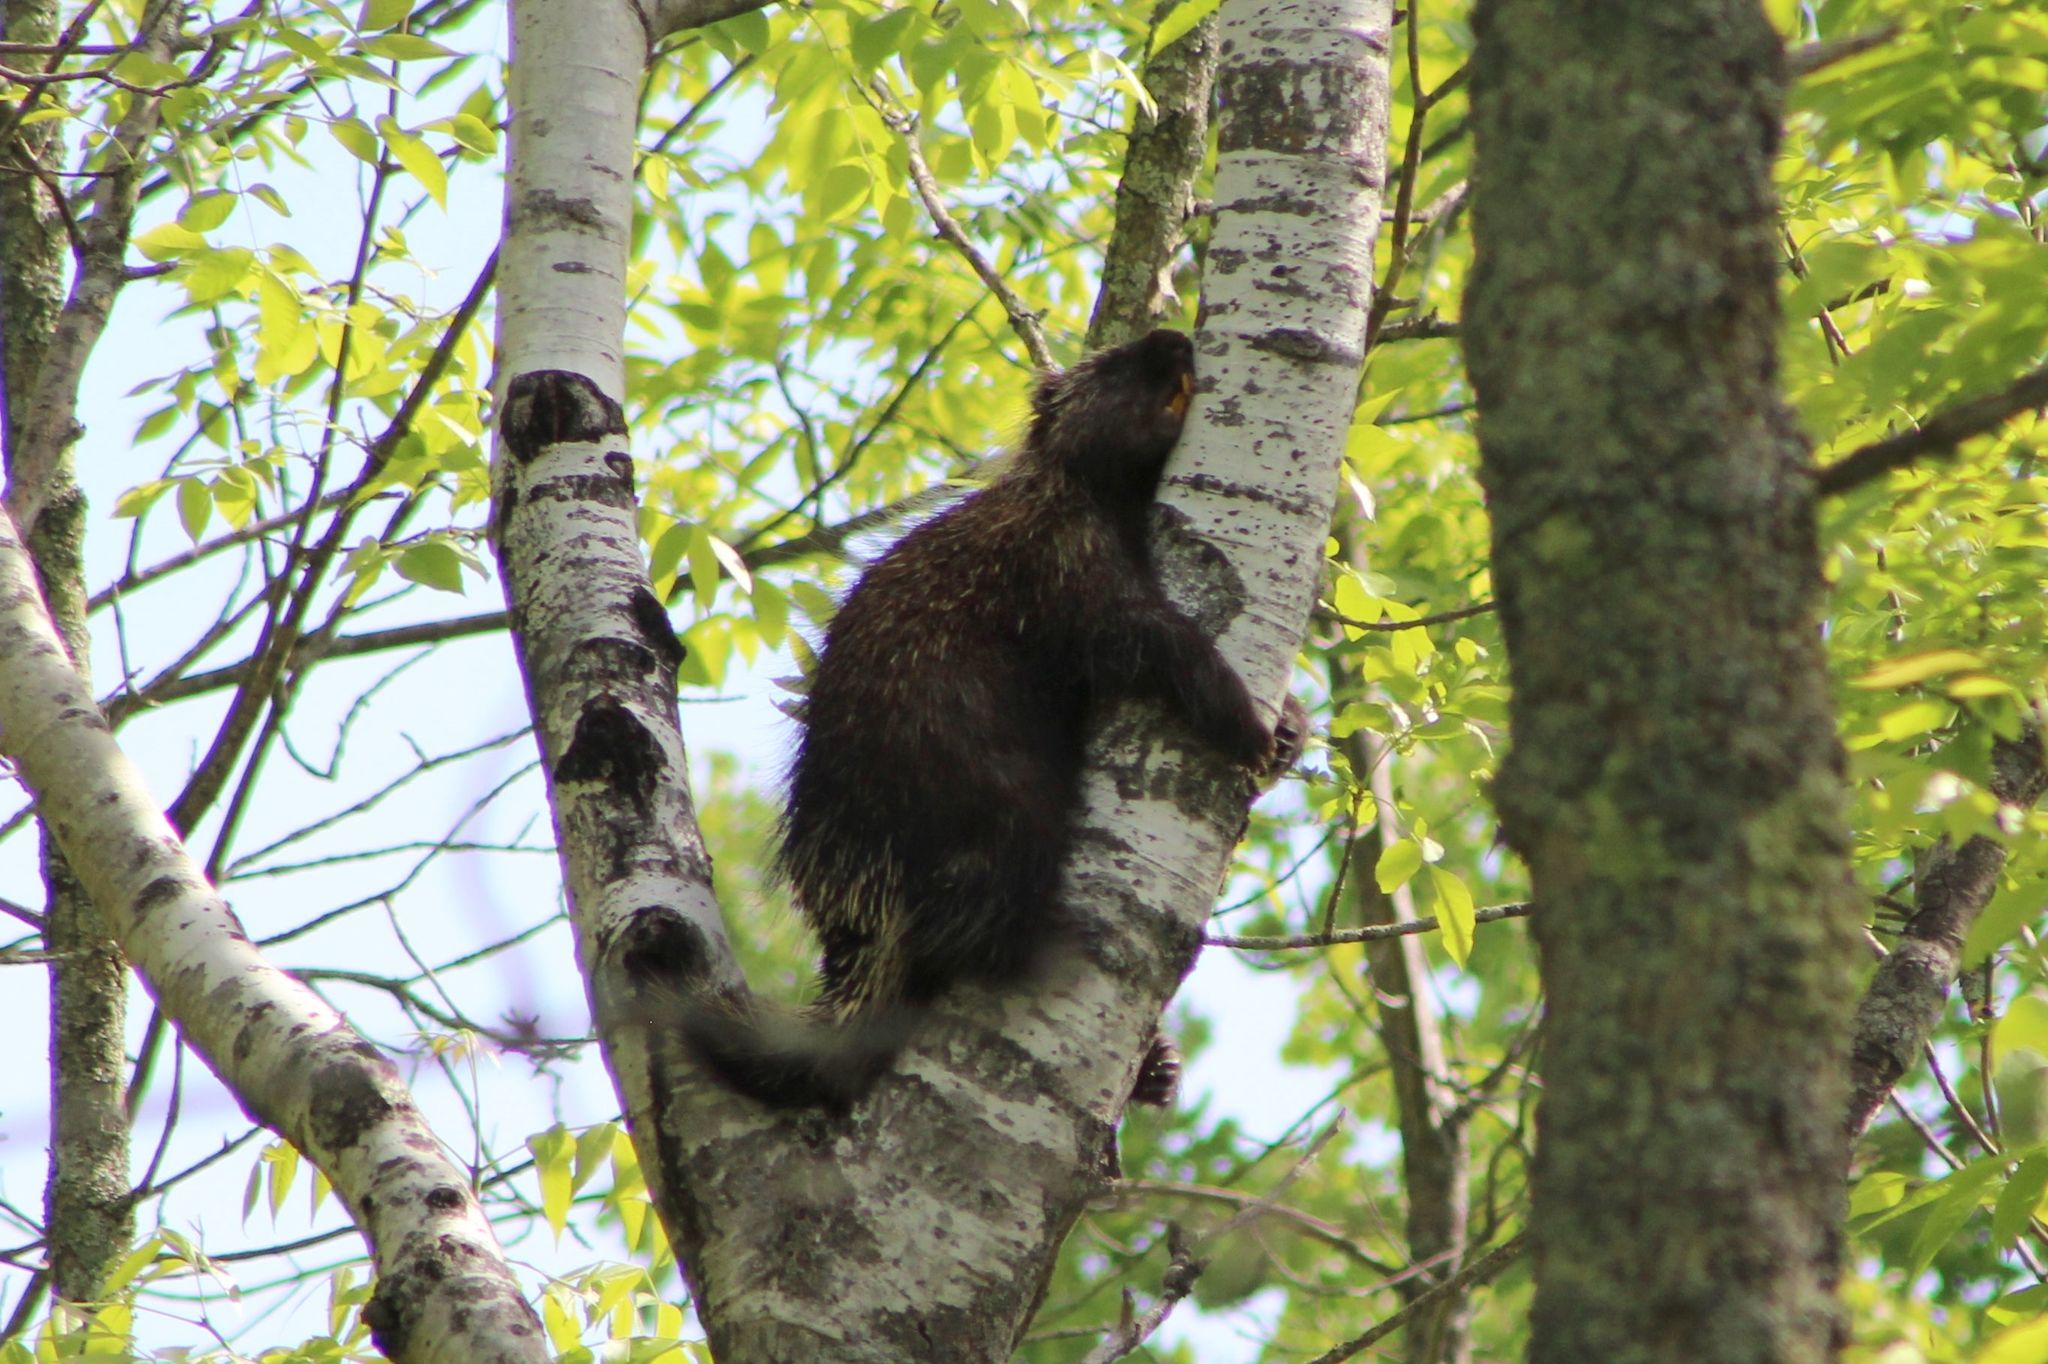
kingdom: Animalia
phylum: Chordata
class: Mammalia
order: Rodentia
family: Erethizontidae
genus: Erethizon
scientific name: Erethizon dorsatus
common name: North american porcupine
